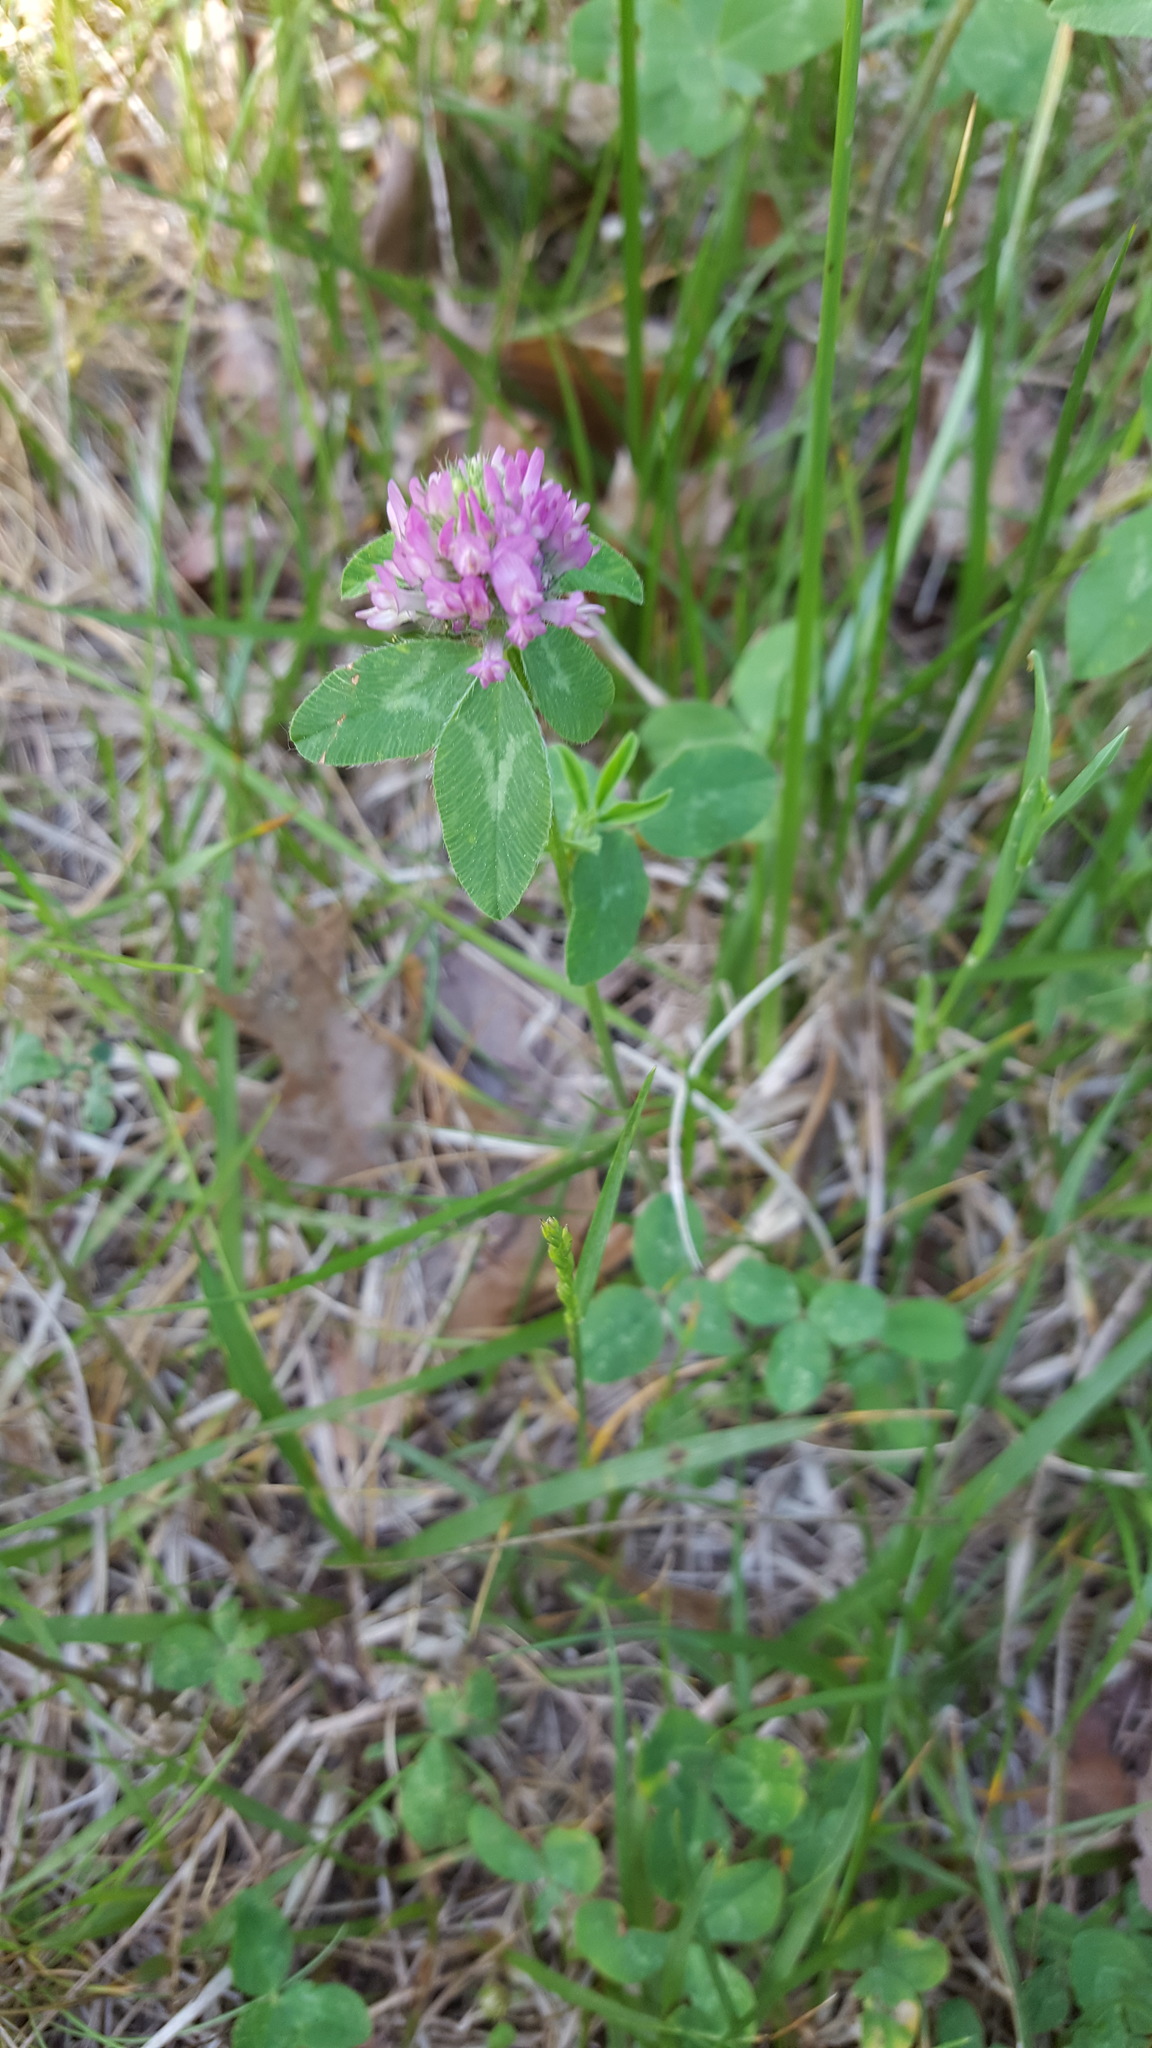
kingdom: Plantae
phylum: Tracheophyta
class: Magnoliopsida
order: Fabales
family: Fabaceae
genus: Trifolium
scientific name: Trifolium pratense
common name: Red clover
